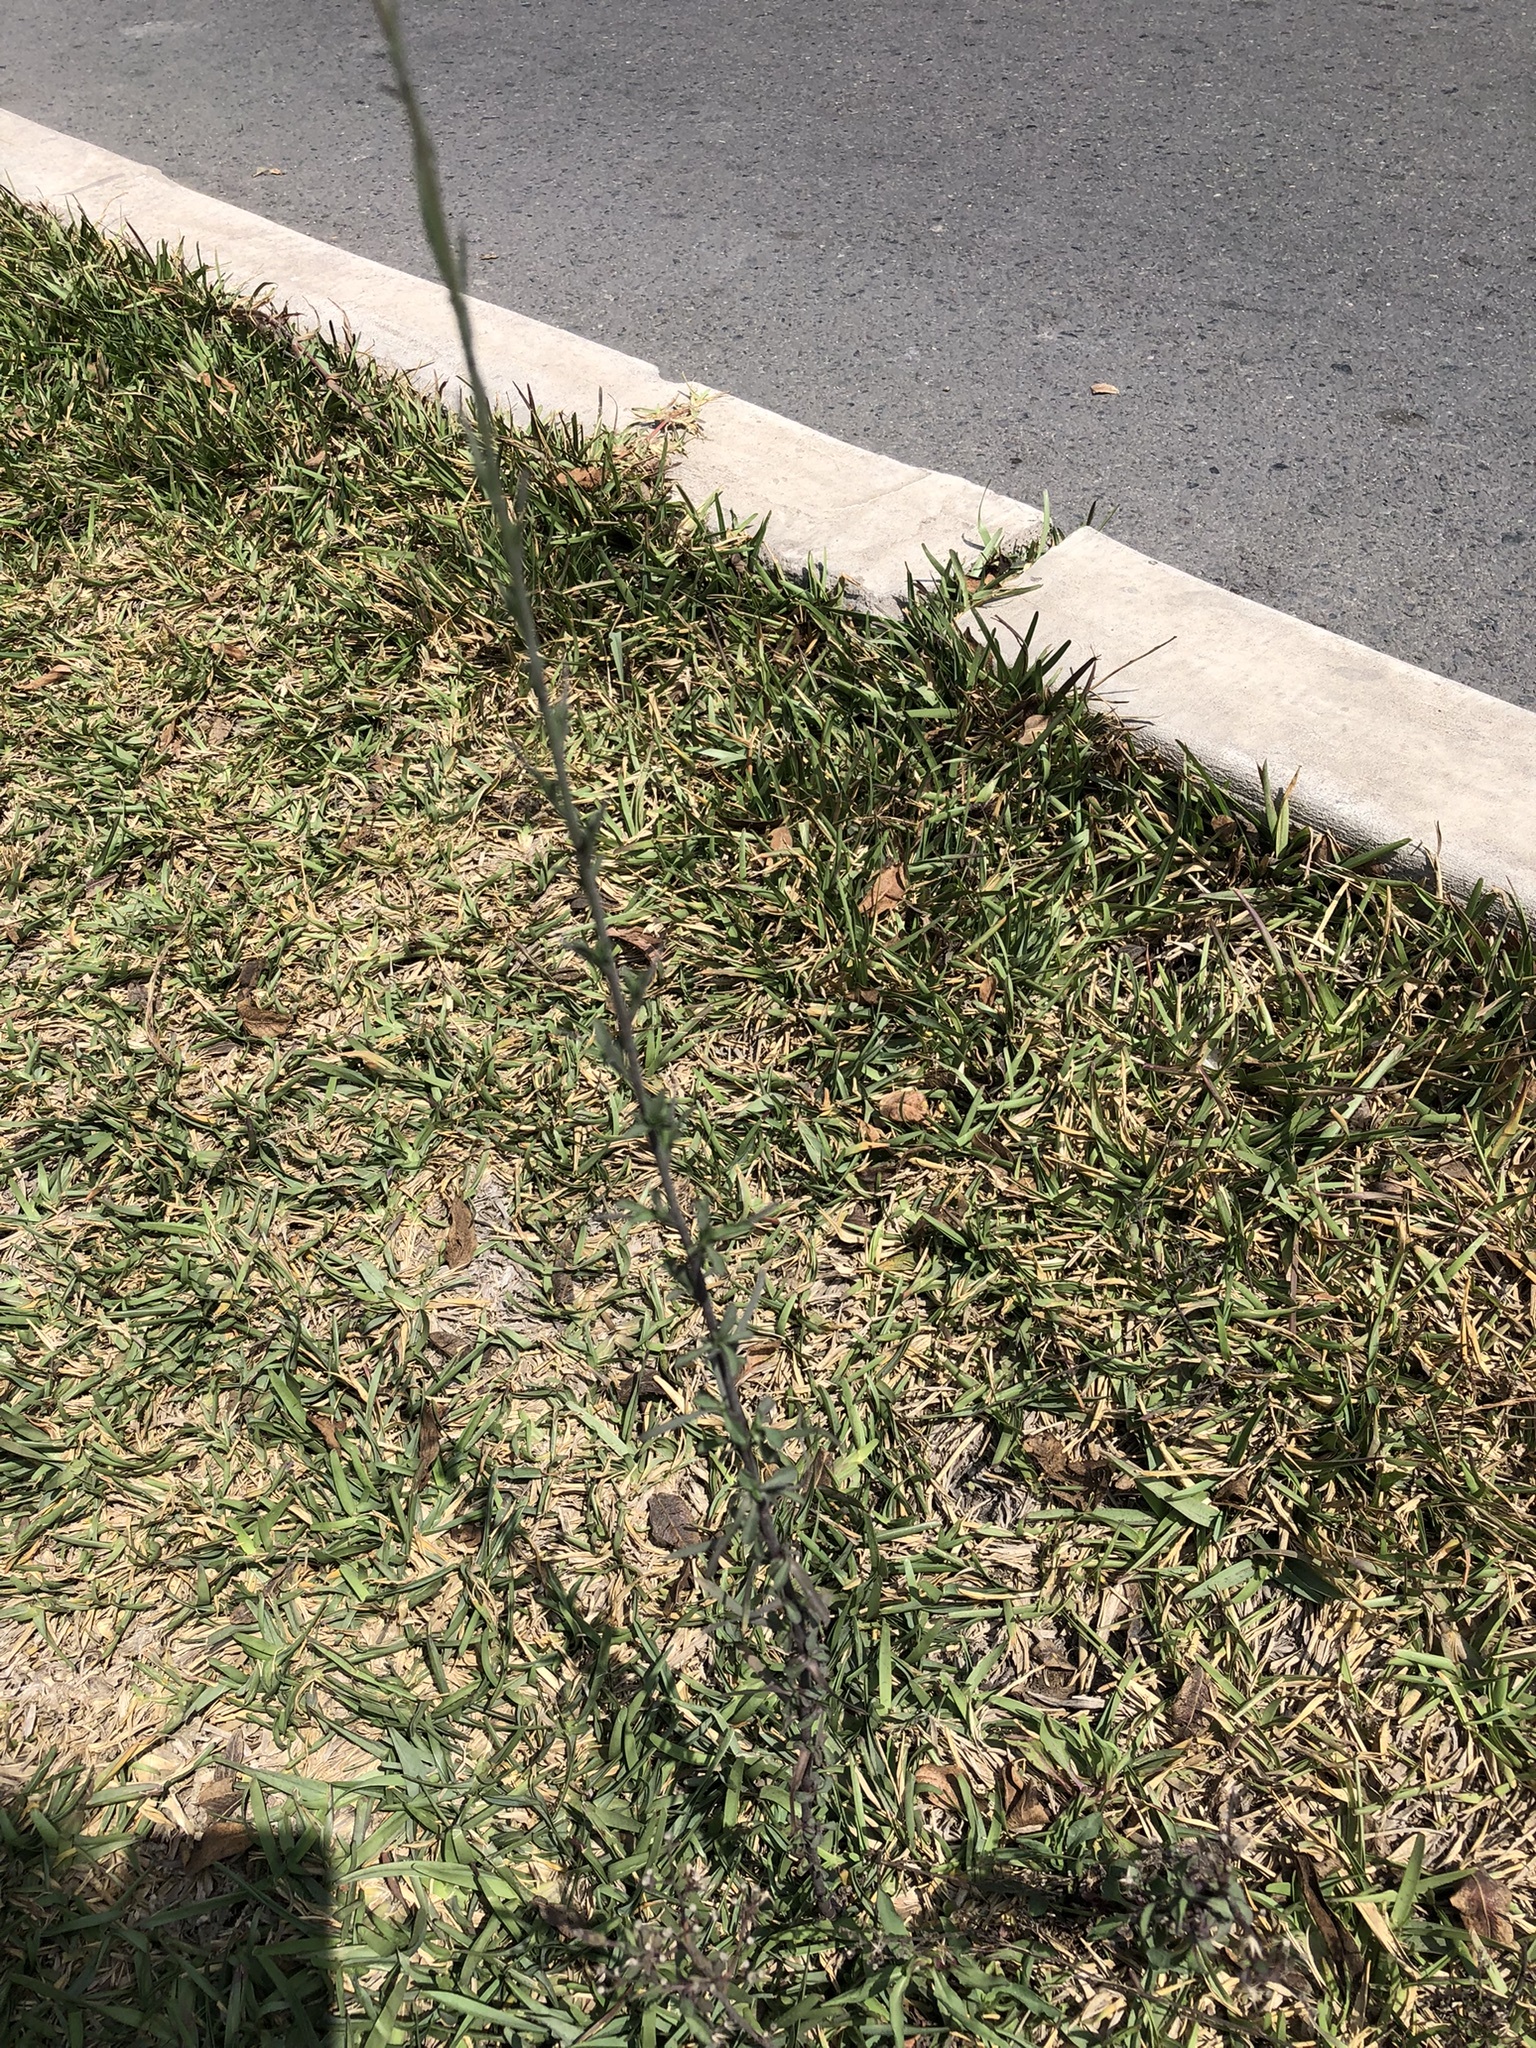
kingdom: Plantae
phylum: Tracheophyta
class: Magnoliopsida
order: Asterales
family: Asteraceae
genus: Symphyotrichum
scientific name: Symphyotrichum subulatum
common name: Annual saltmarsh aster
